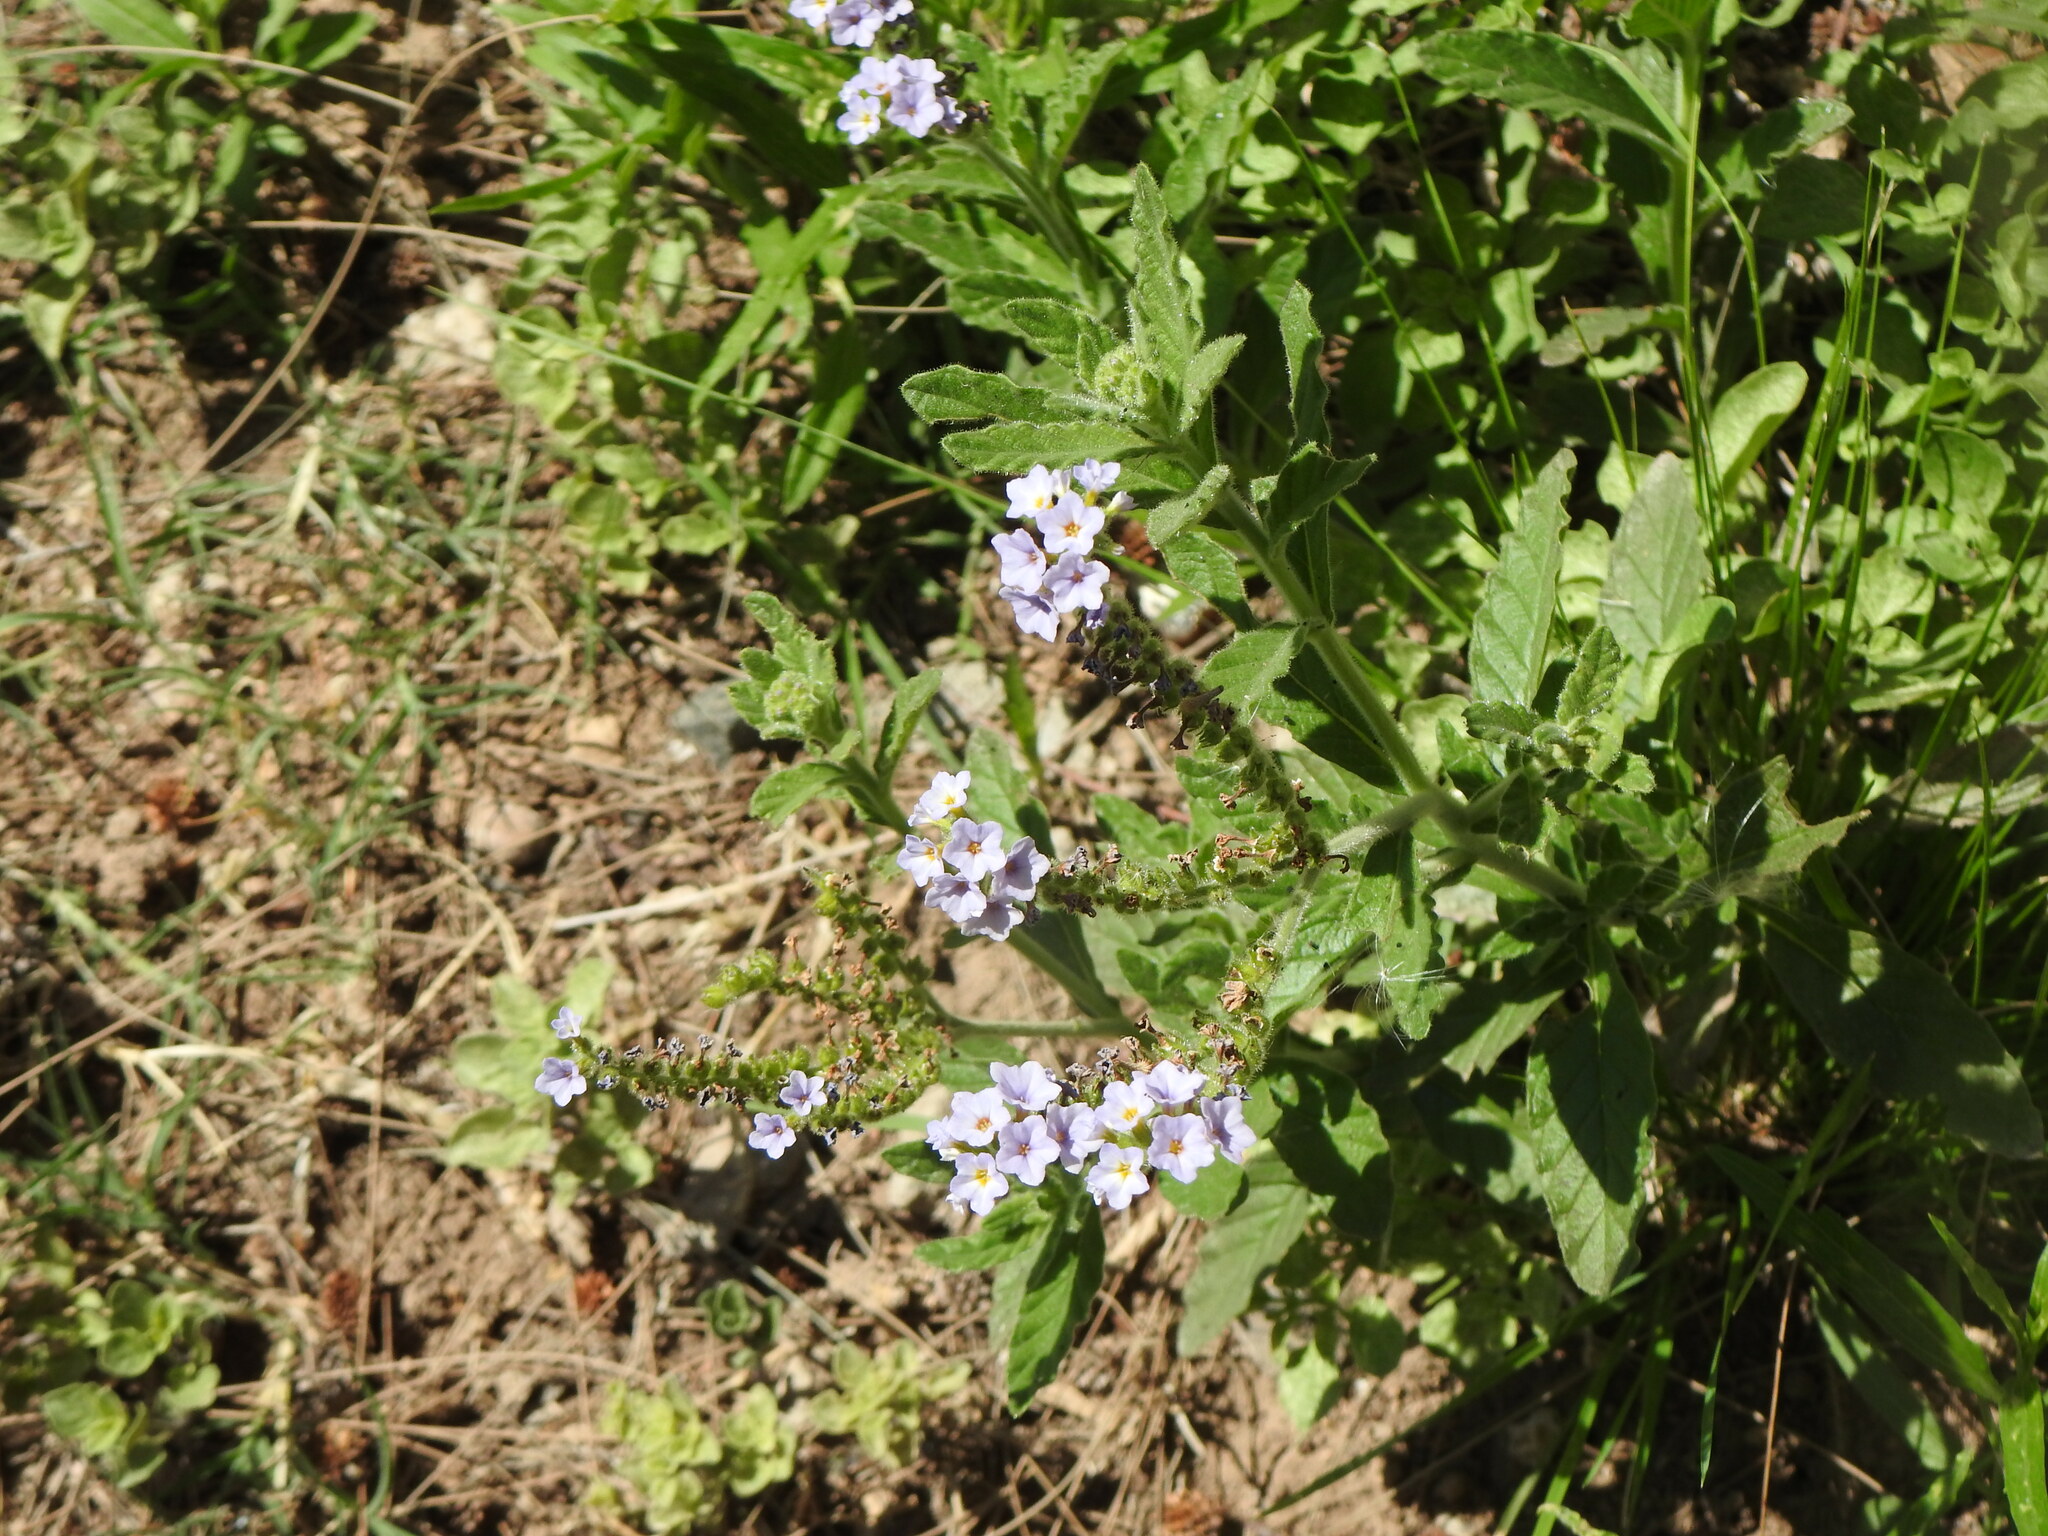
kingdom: Plantae
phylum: Tracheophyta
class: Magnoliopsida
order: Boraginales
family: Heliotropiaceae
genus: Heliotropium
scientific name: Heliotropium amplexicaule
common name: Clasping heliotrope
